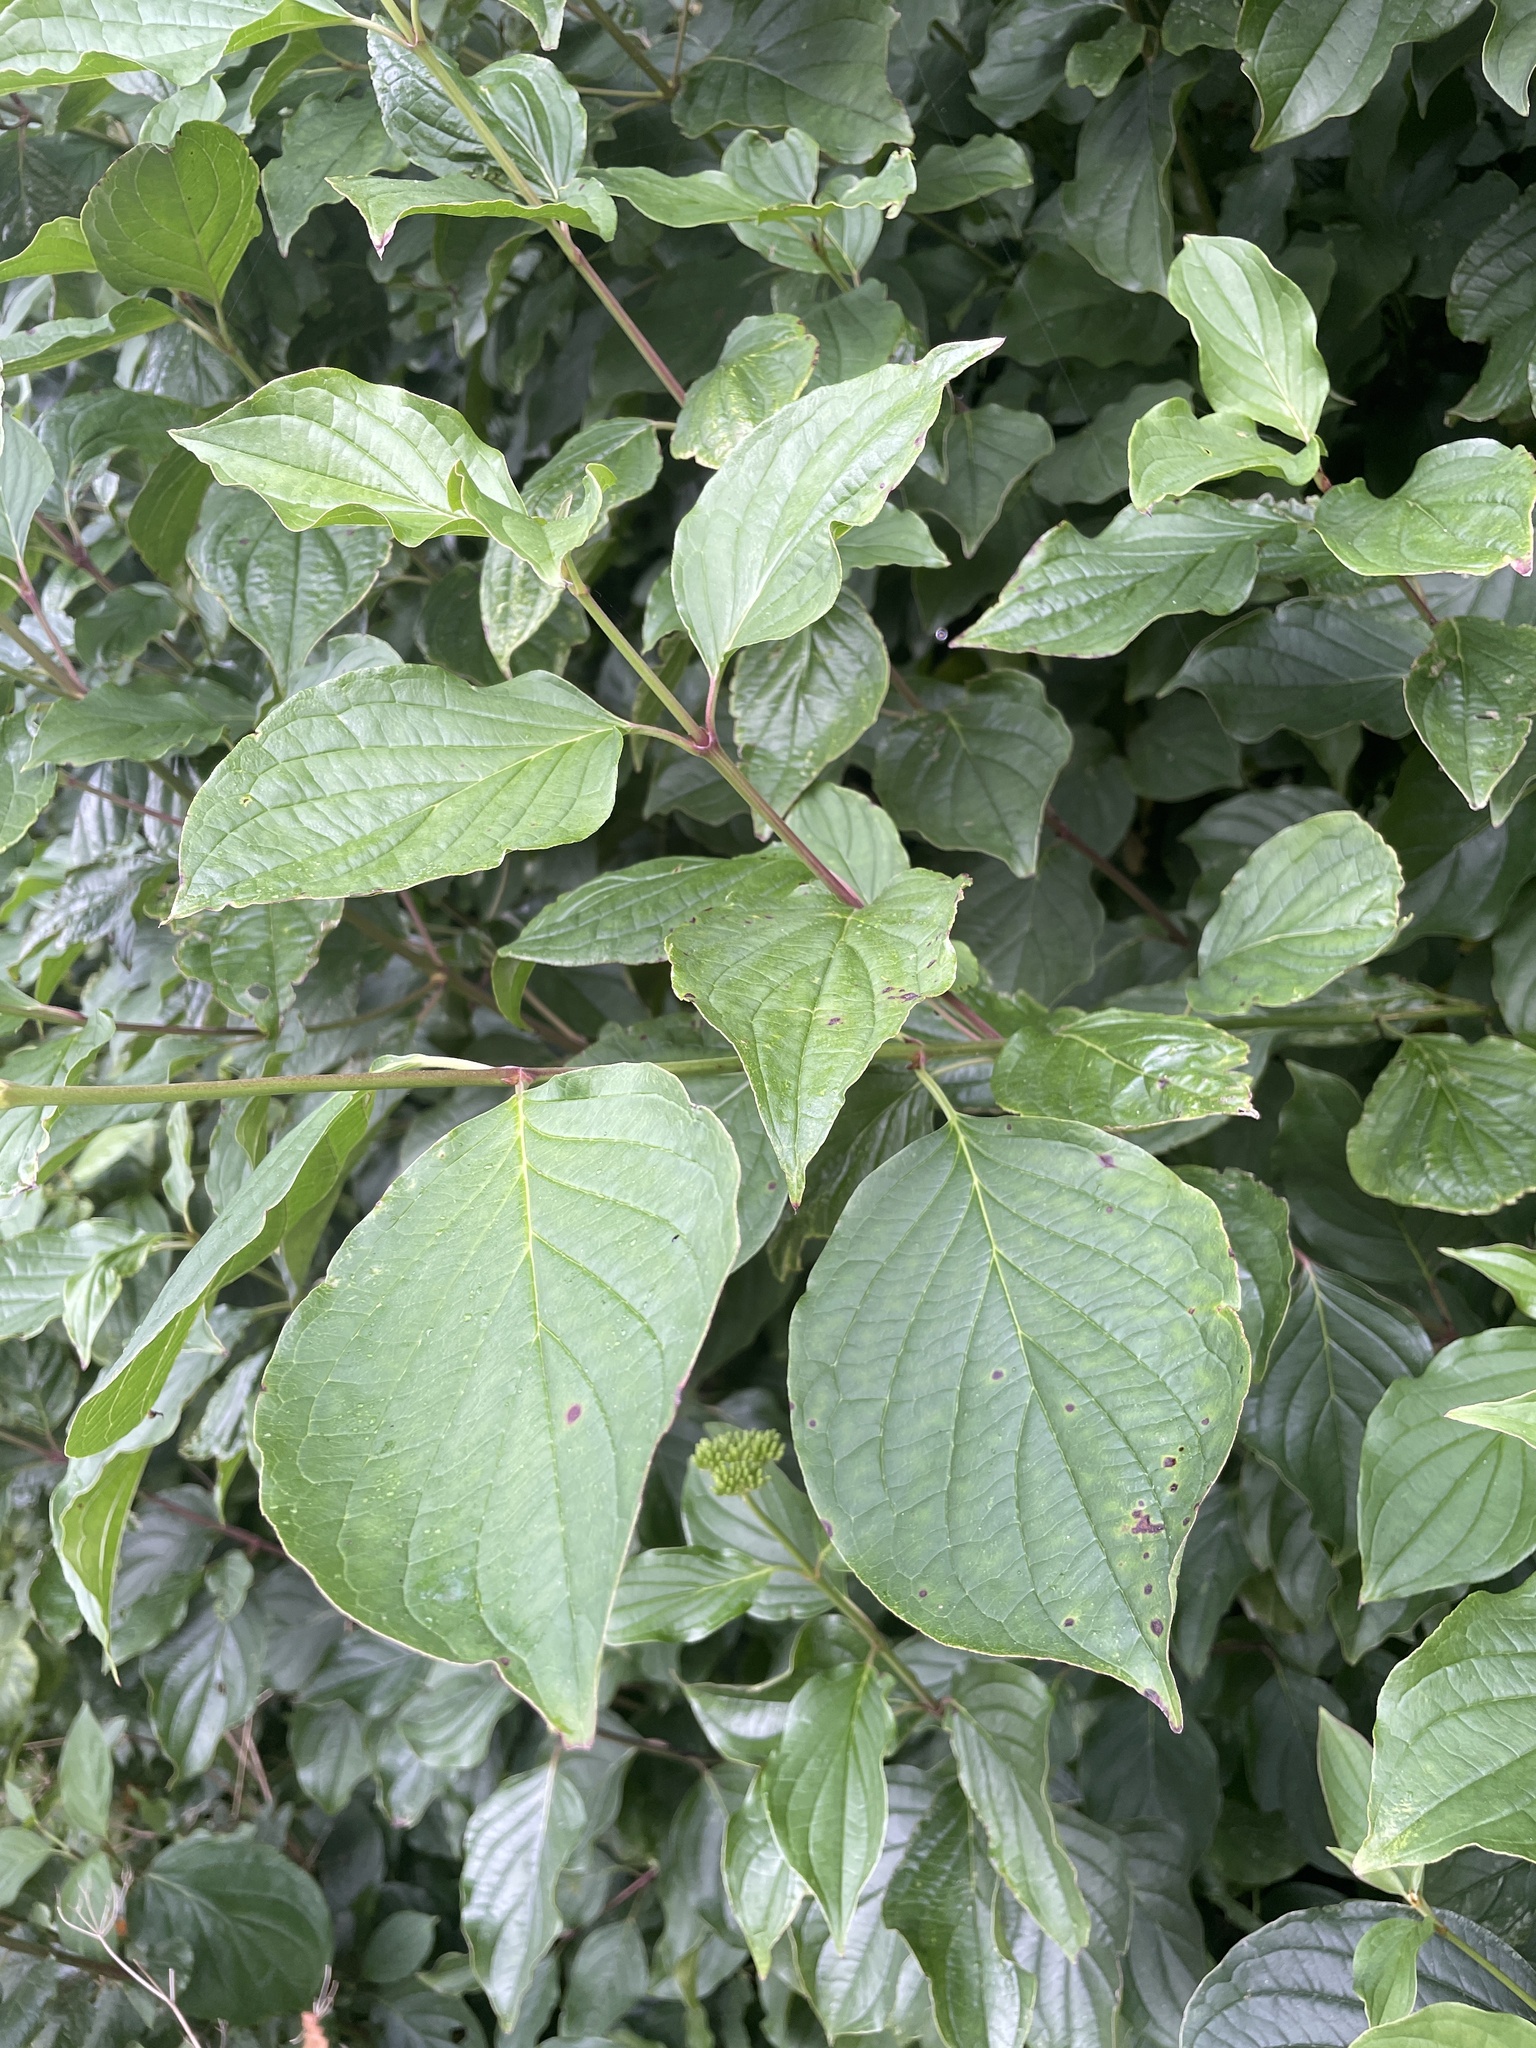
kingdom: Plantae
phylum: Tracheophyta
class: Magnoliopsida
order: Cornales
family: Cornaceae
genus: Cornus
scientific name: Cornus sanguinea
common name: Dogwood
